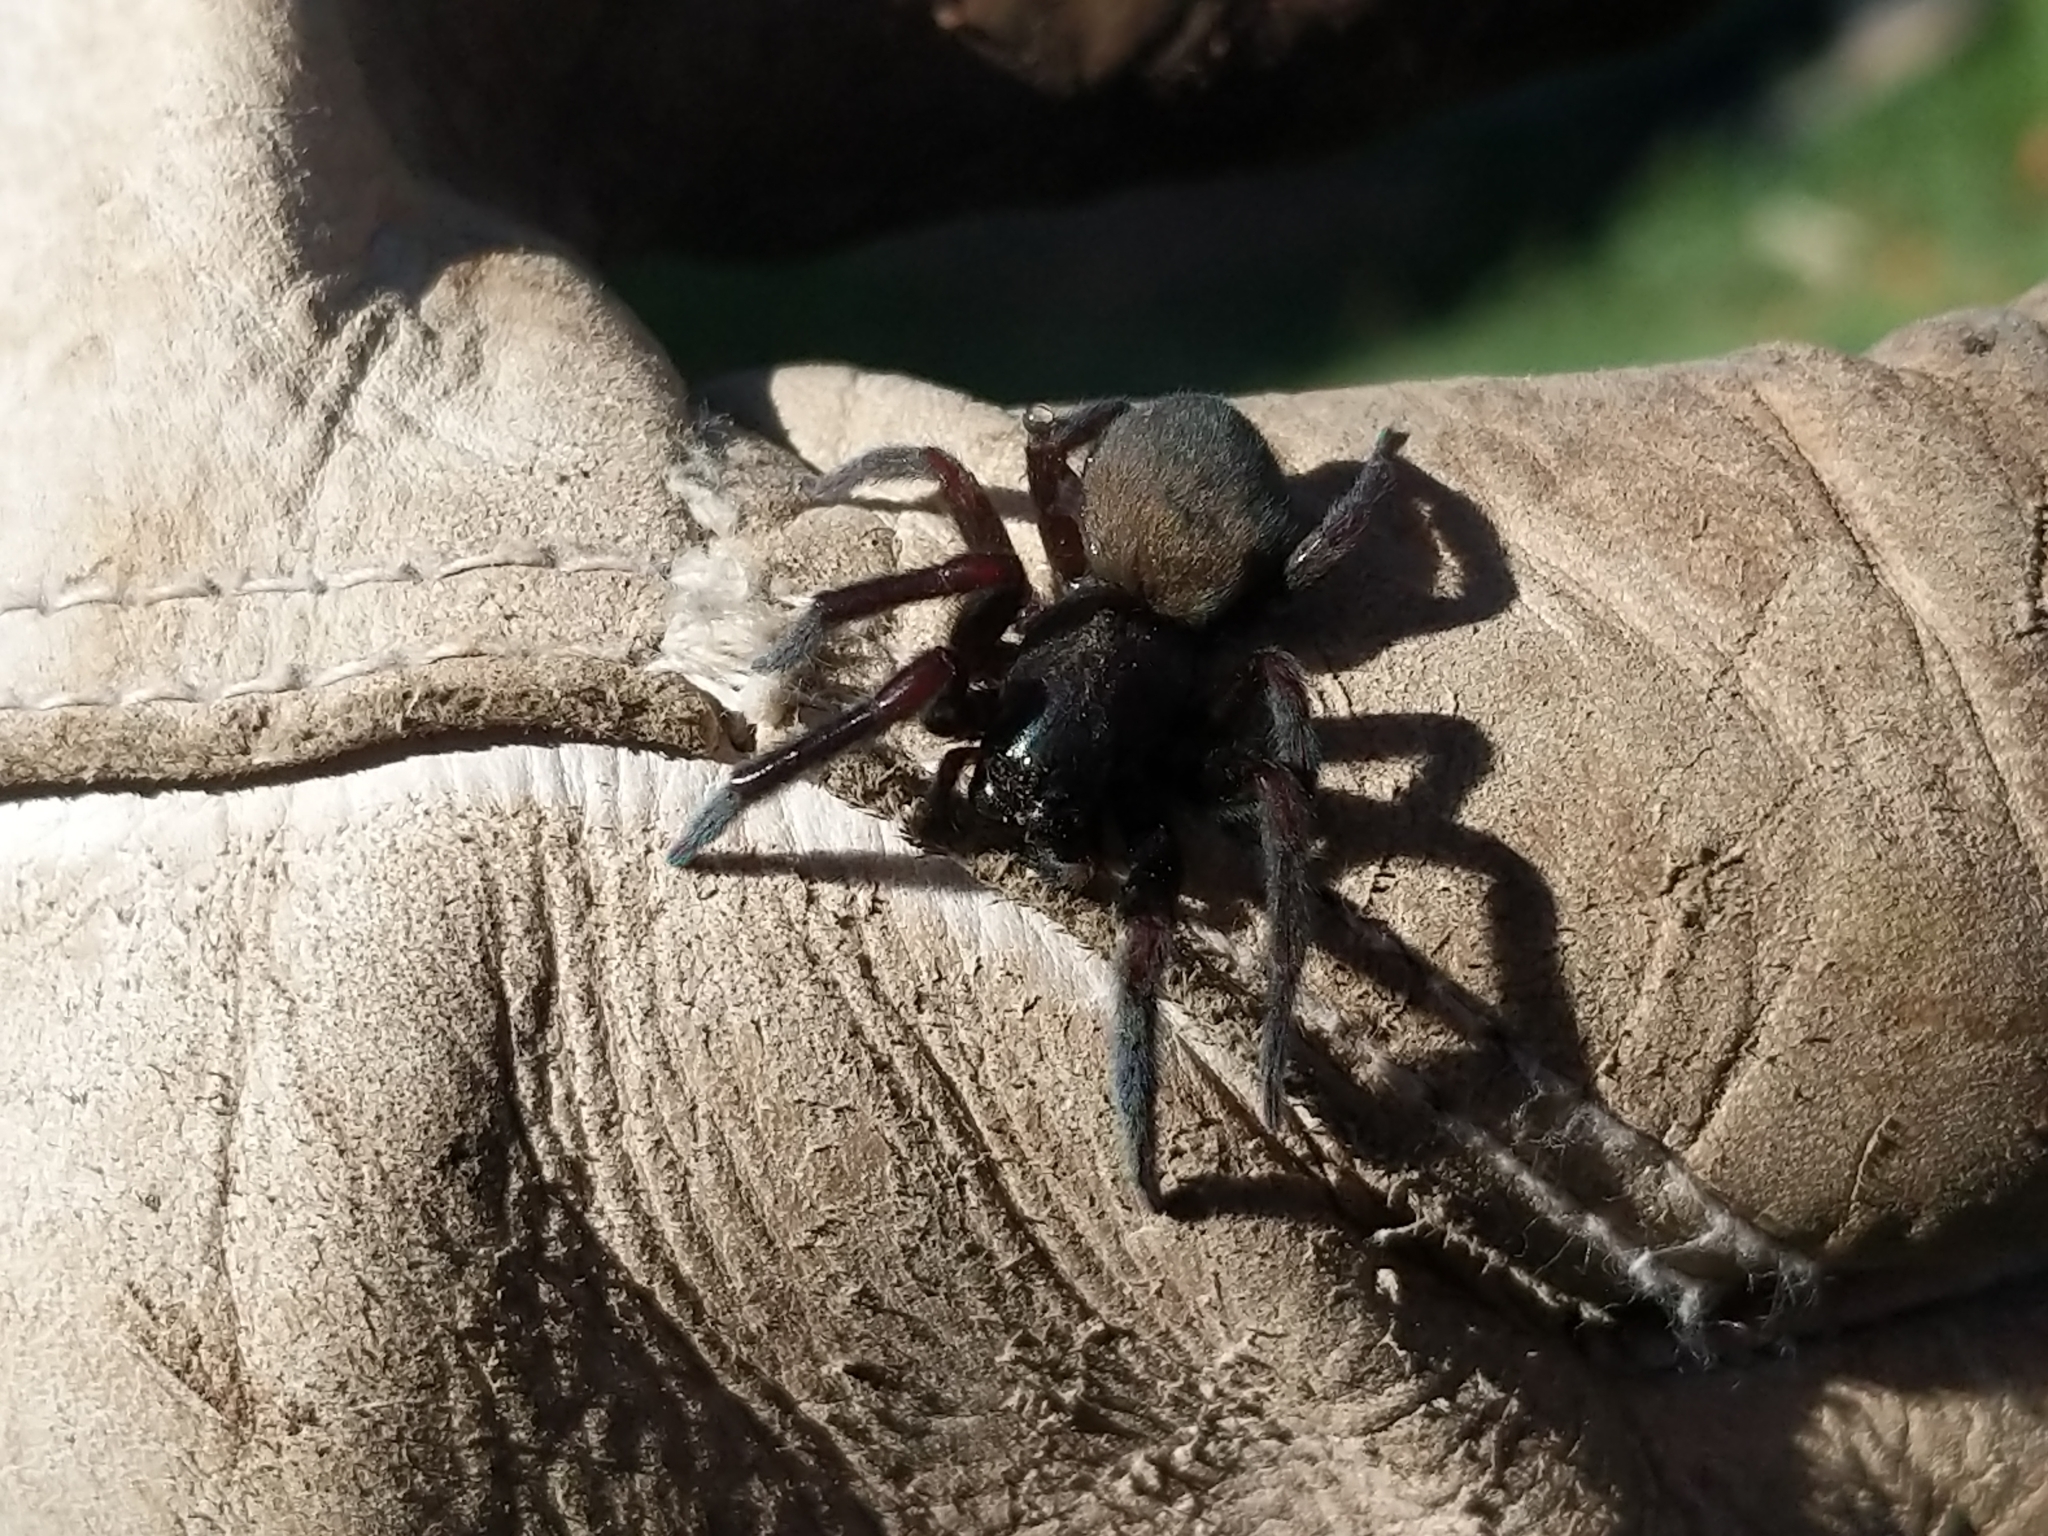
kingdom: Animalia
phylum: Arthropoda
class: Arachnida
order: Araneae
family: Desidae
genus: Badumna
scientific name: Badumna insignis
